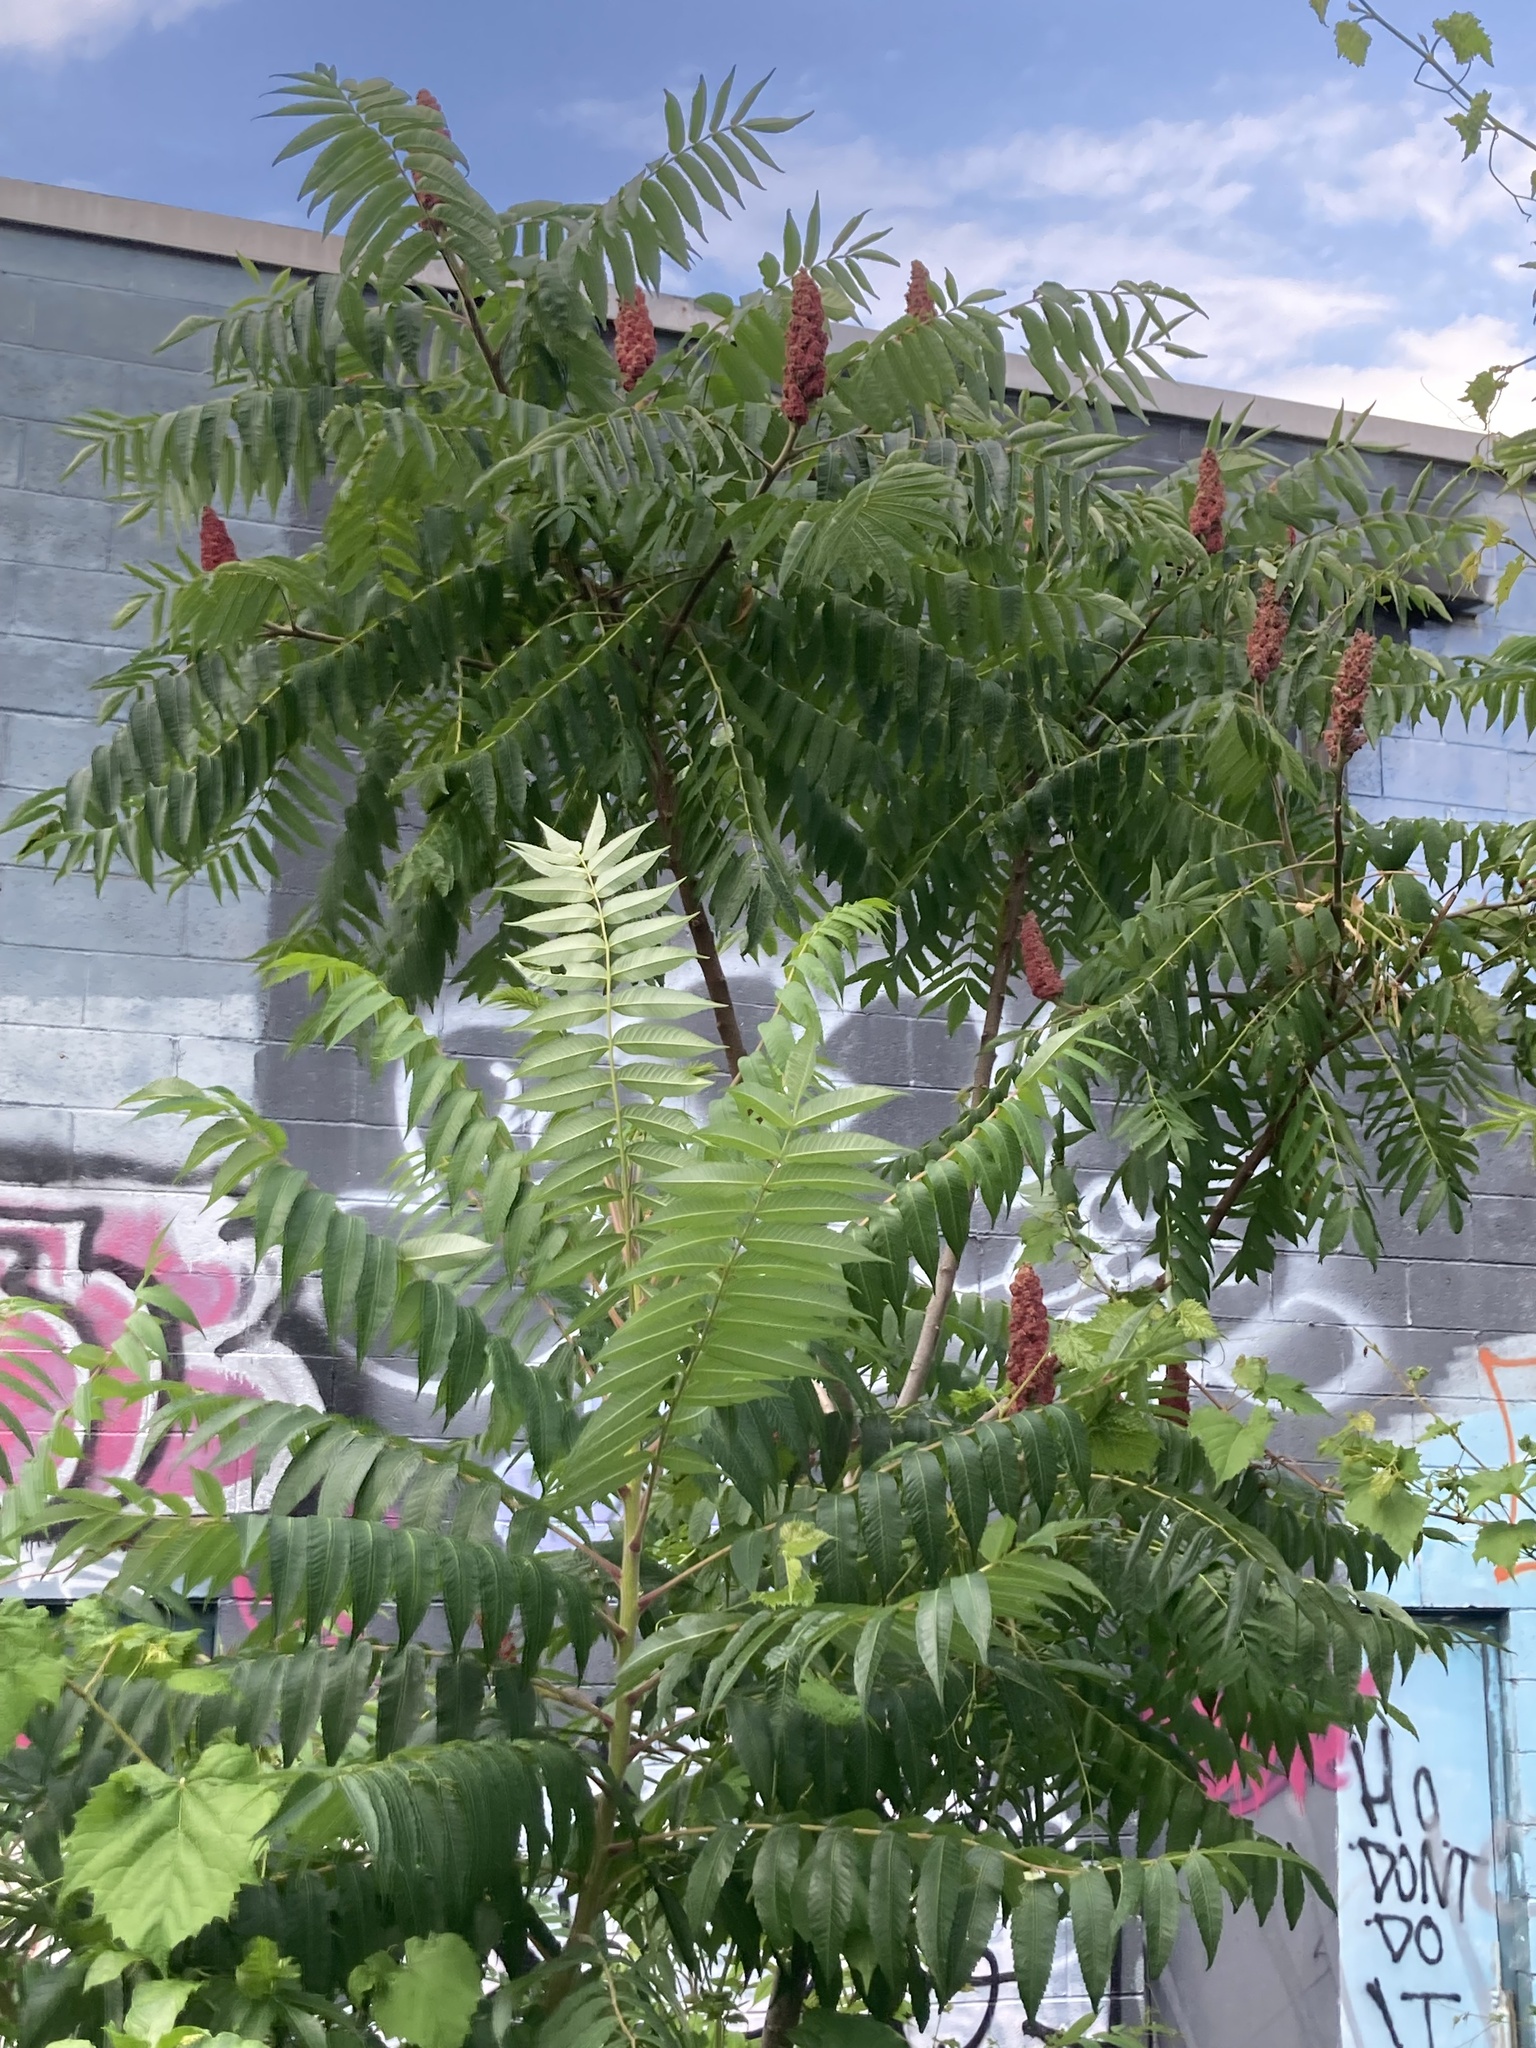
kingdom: Plantae
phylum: Tracheophyta
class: Magnoliopsida
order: Sapindales
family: Anacardiaceae
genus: Rhus
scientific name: Rhus typhina
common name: Staghorn sumac
